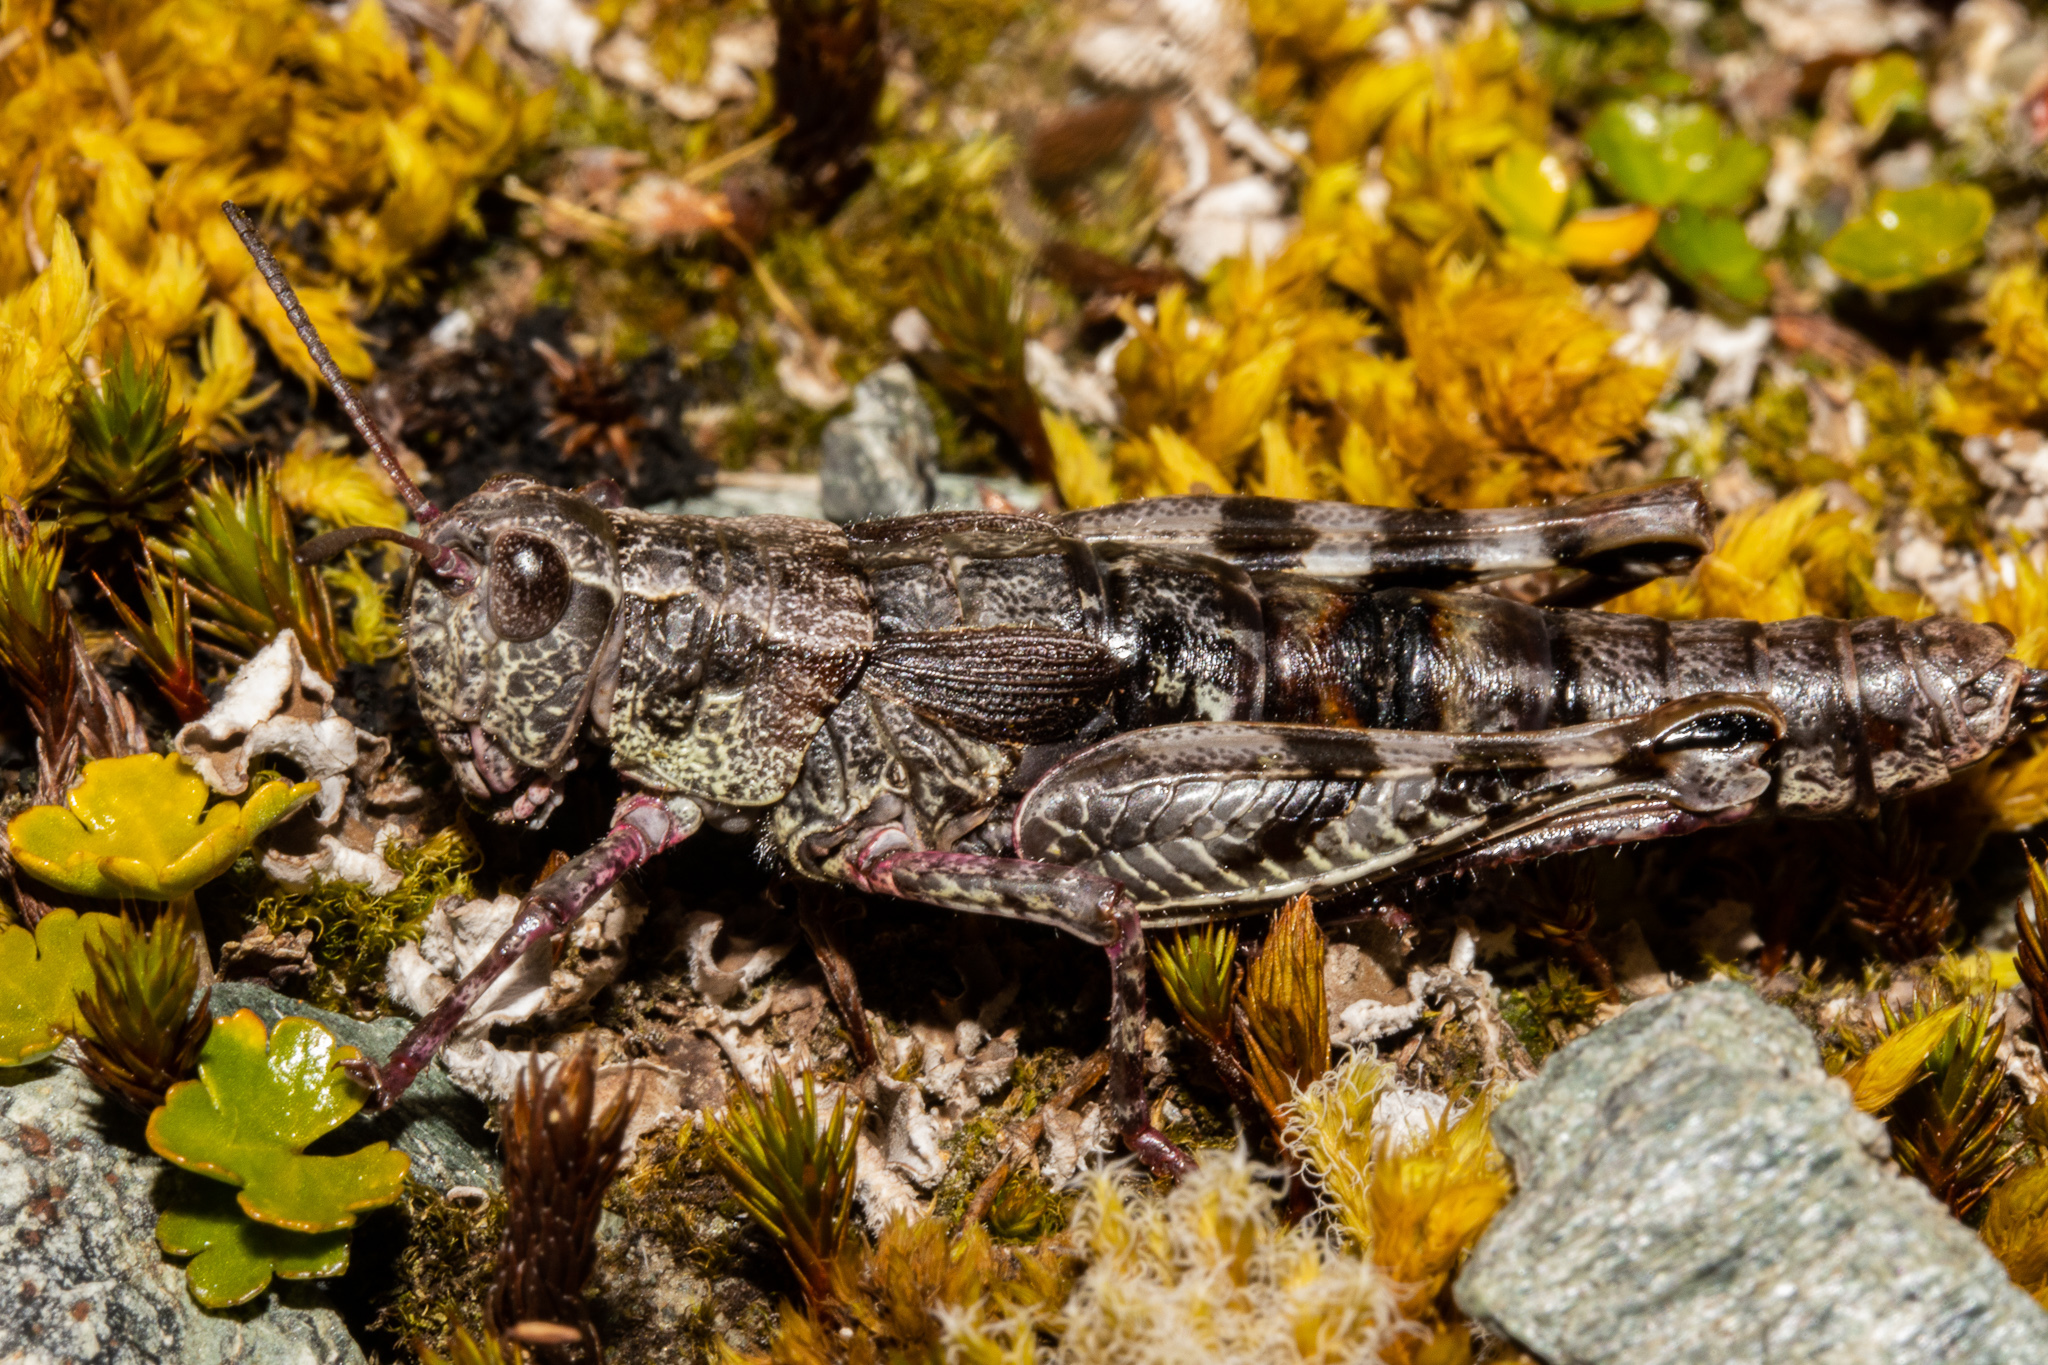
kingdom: Animalia
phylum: Arthropoda
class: Insecta
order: Orthoptera
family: Acrididae
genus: Sigaus
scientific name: Sigaus australis
